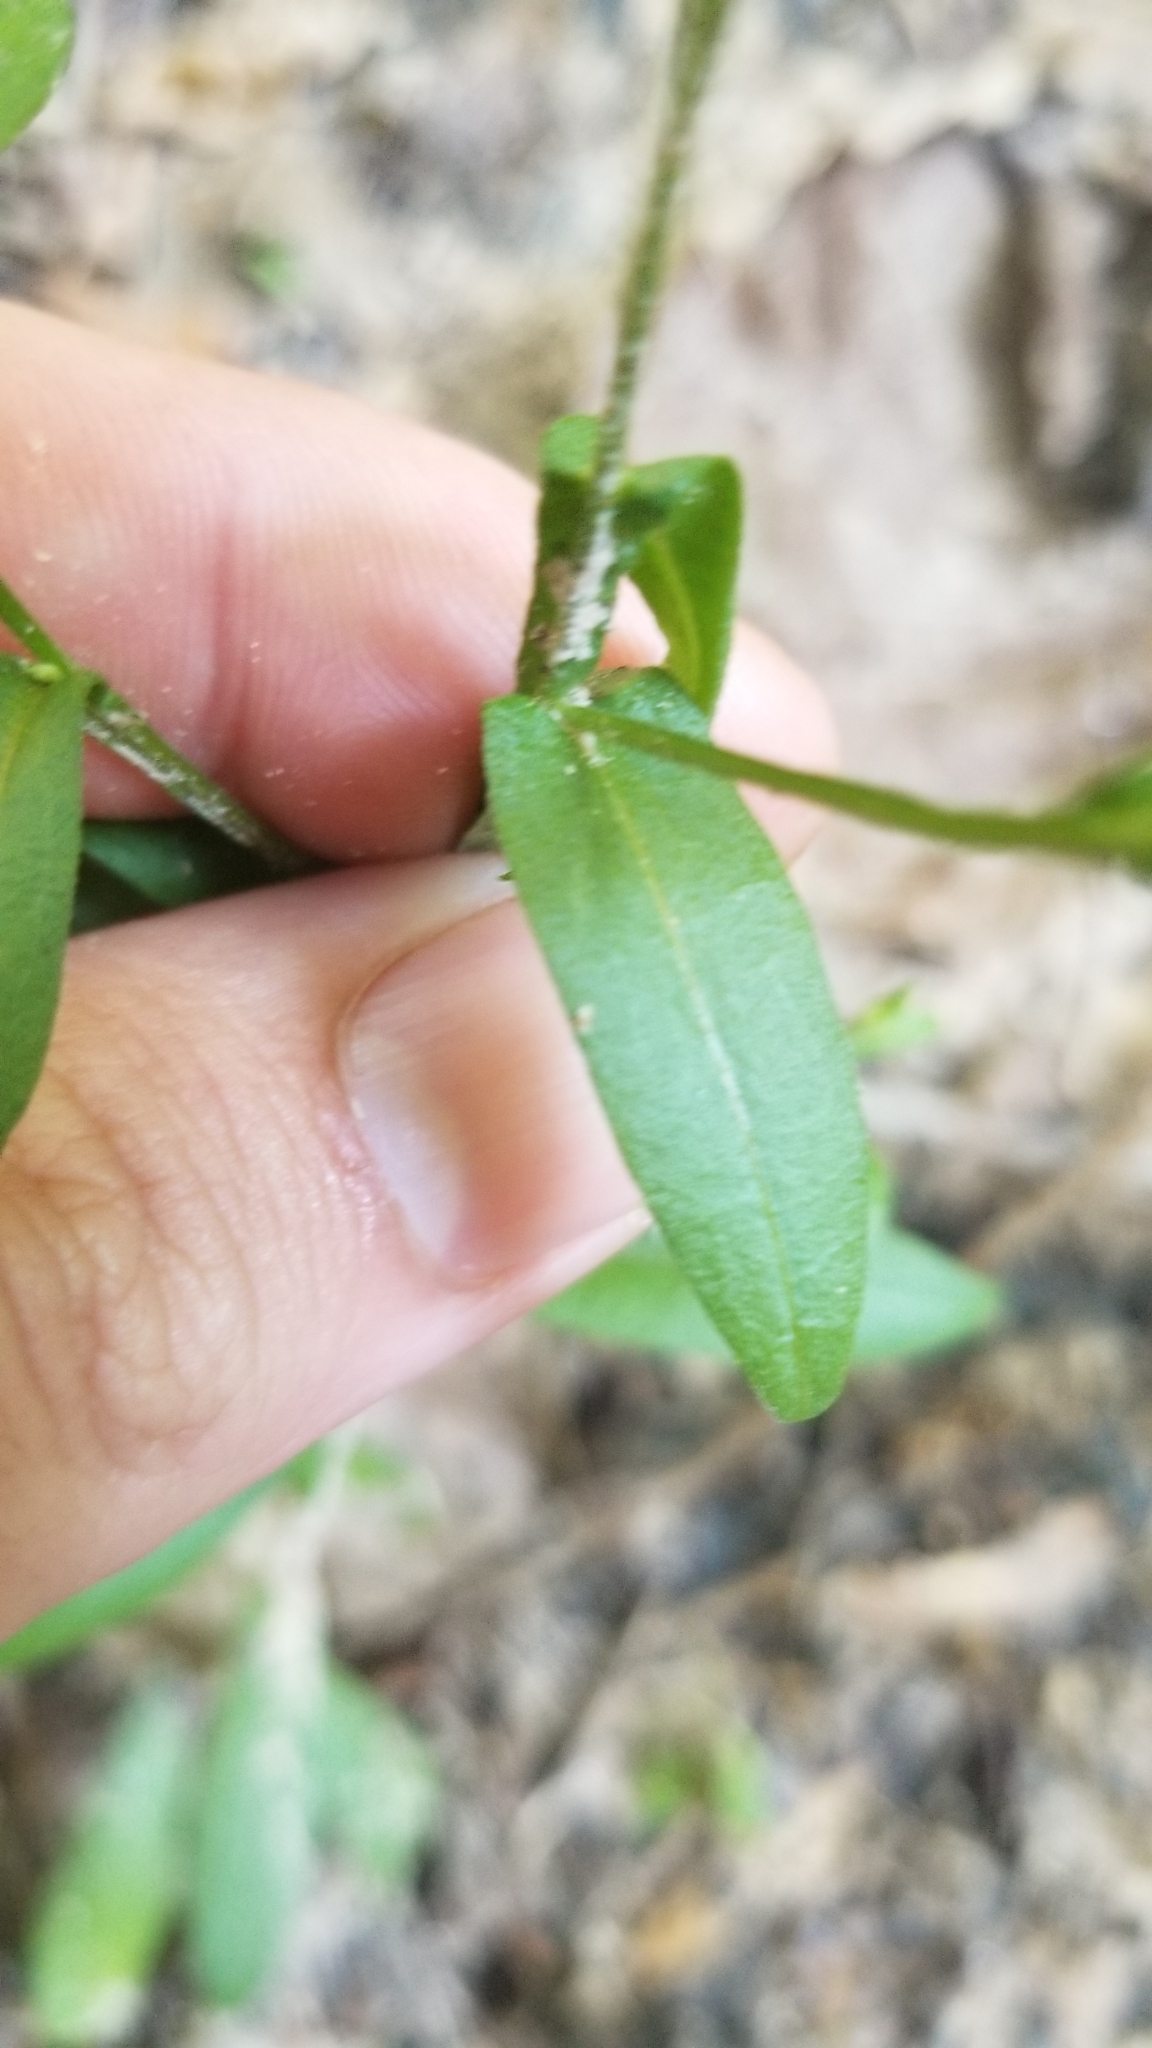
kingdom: Plantae
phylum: Tracheophyta
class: Magnoliopsida
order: Asterales
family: Asteraceae
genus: Helenium
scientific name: Helenium flexuosum
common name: Naked-flowered sneezeweed
